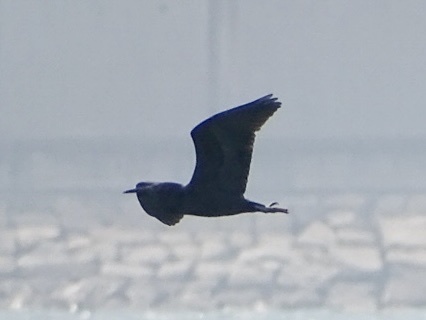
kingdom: Animalia
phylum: Chordata
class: Aves
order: Pelecaniformes
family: Ardeidae
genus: Egretta
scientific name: Egretta sacra
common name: Pacific reef heron
